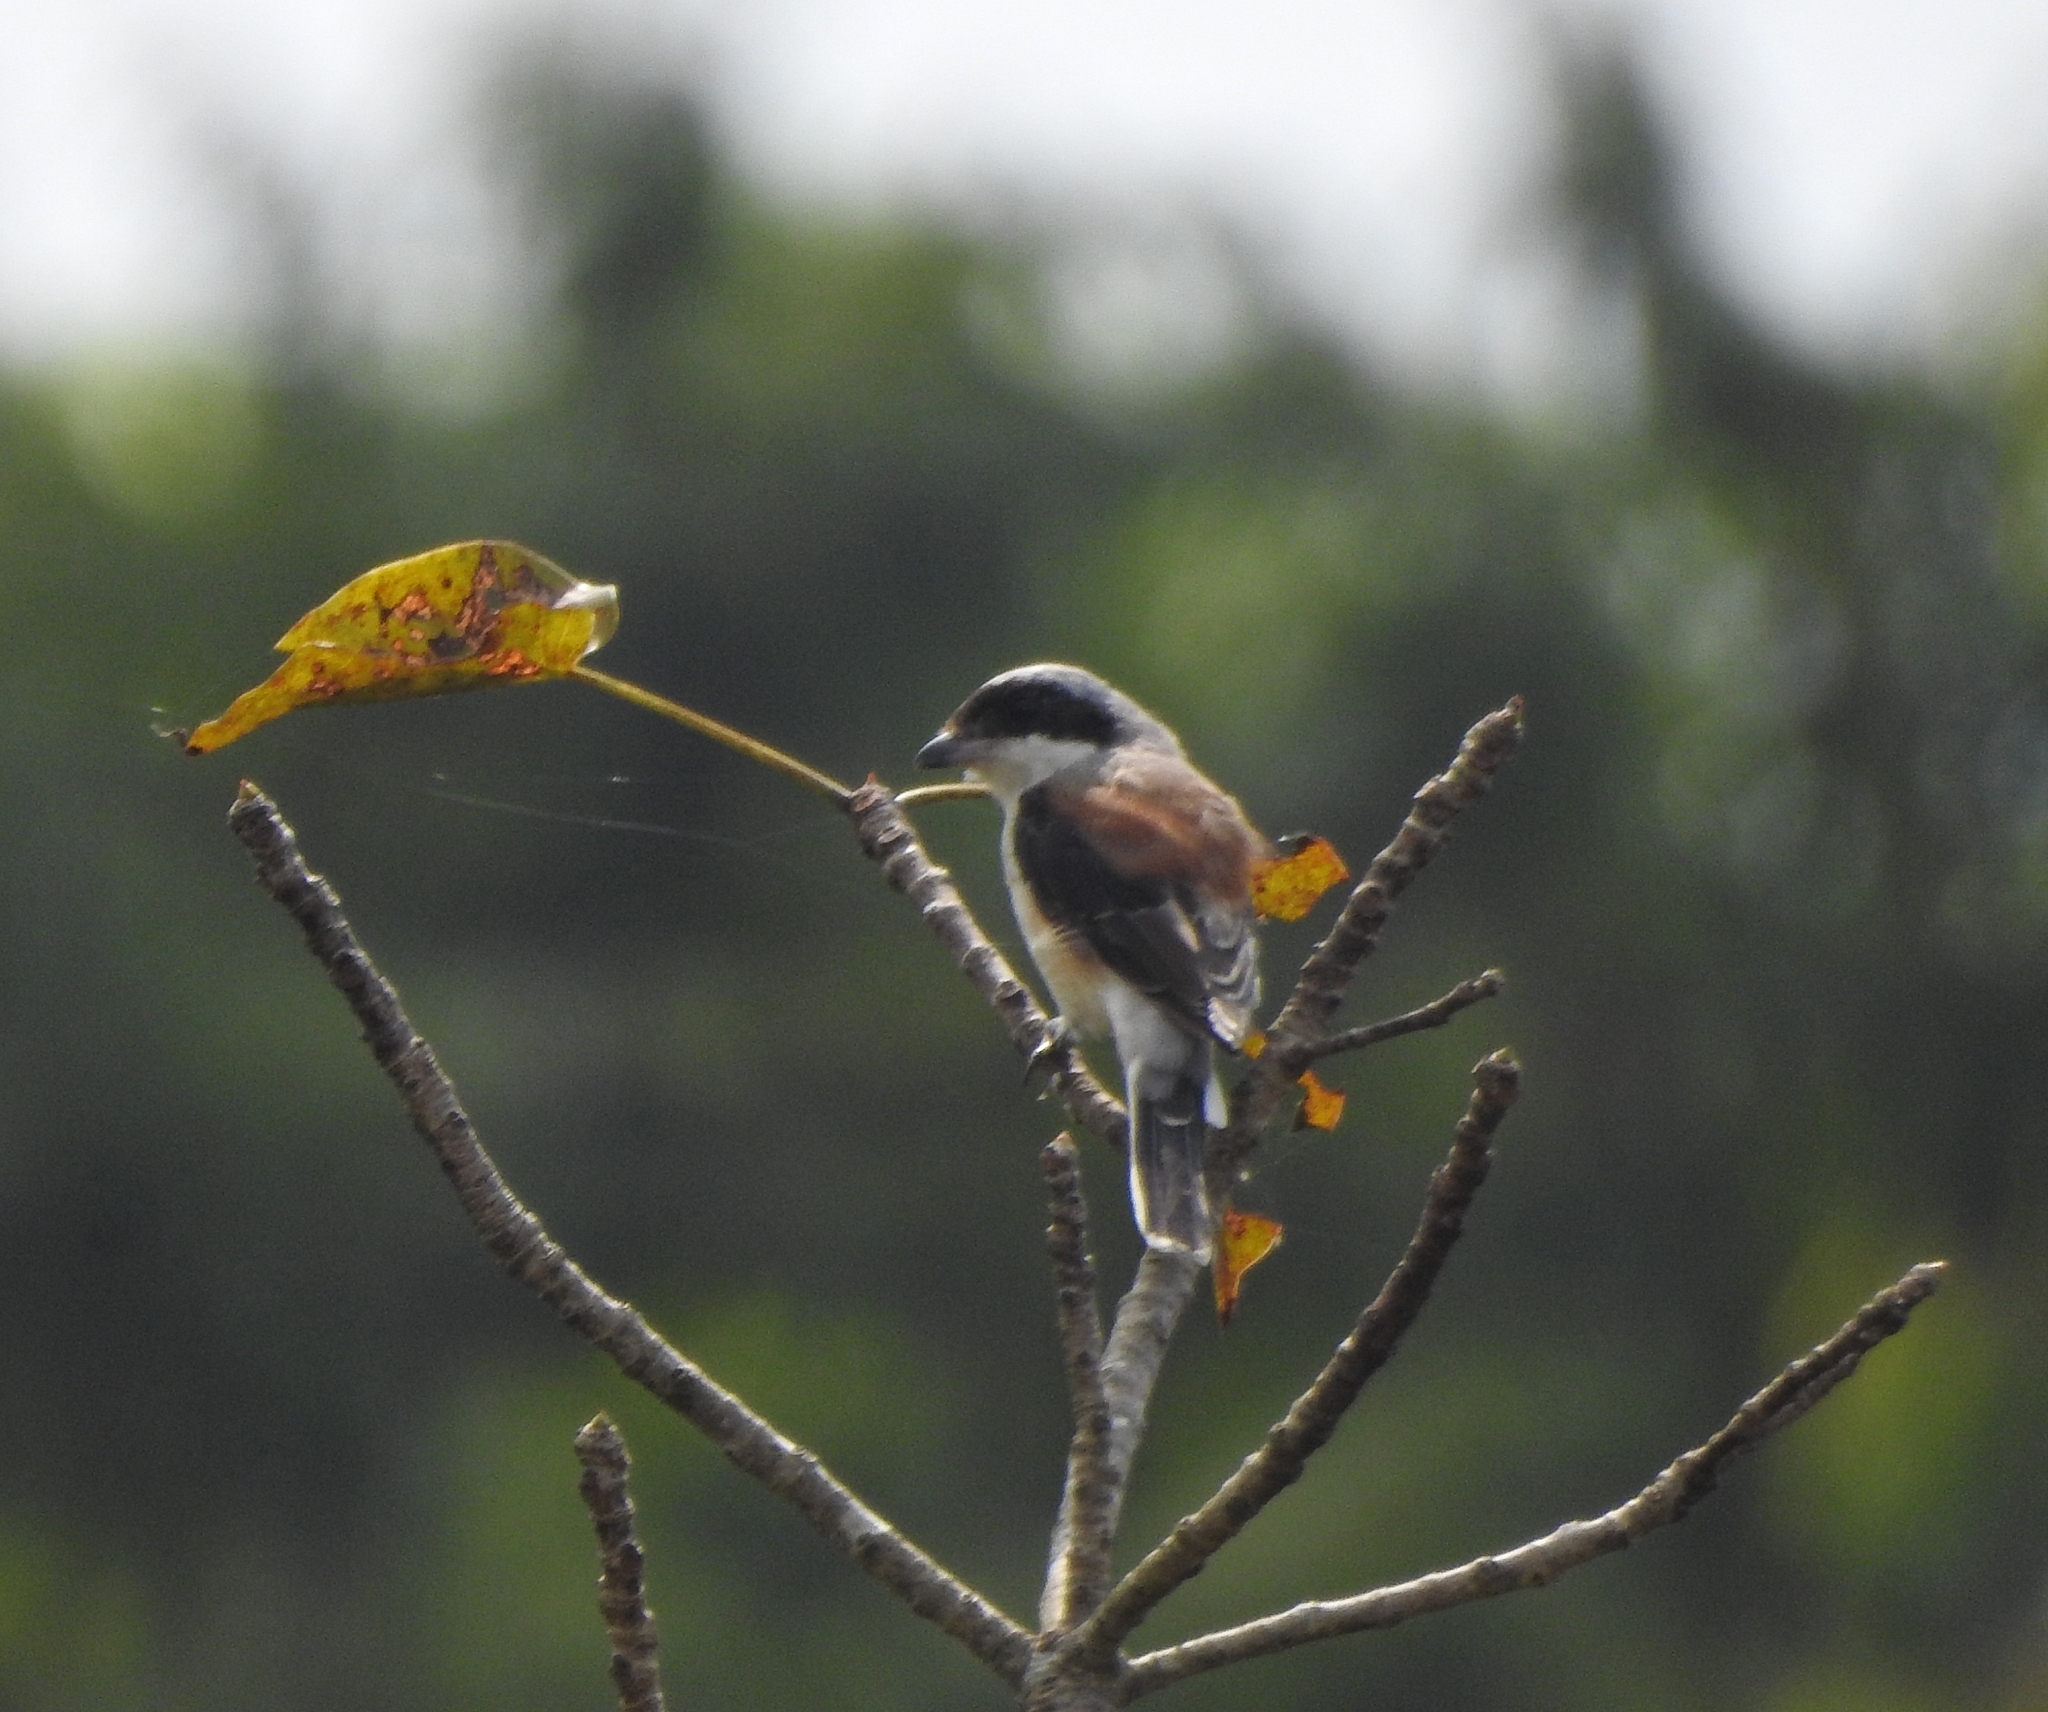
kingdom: Animalia
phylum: Chordata
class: Aves
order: Passeriformes
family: Laniidae
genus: Lanius
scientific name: Lanius vittatus
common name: Bay-backed shrike
